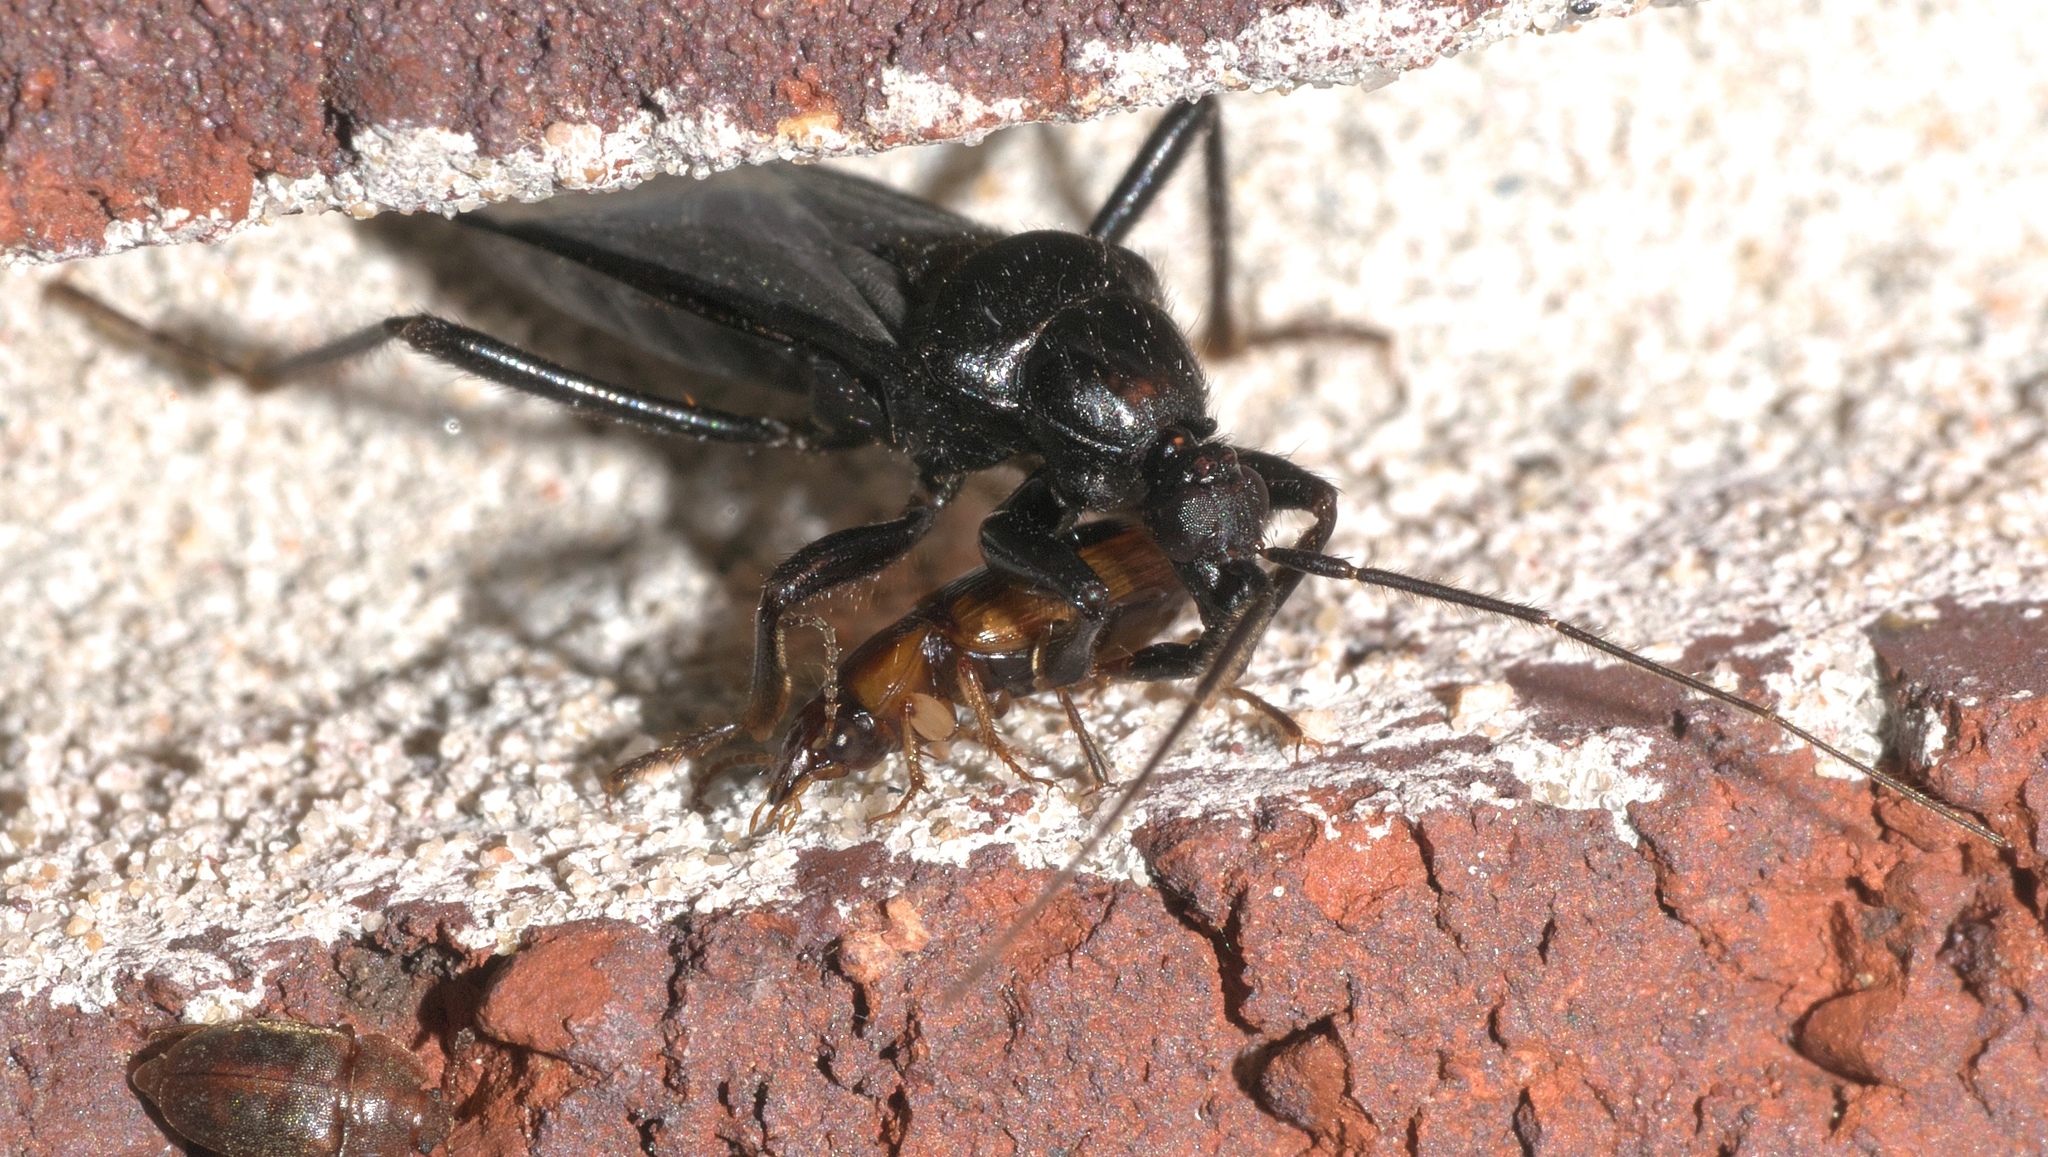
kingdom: Animalia
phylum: Arthropoda
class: Insecta
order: Hemiptera
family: Reduviidae
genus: Melanolestes
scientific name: Melanolestes picipes
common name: Assassin bug
